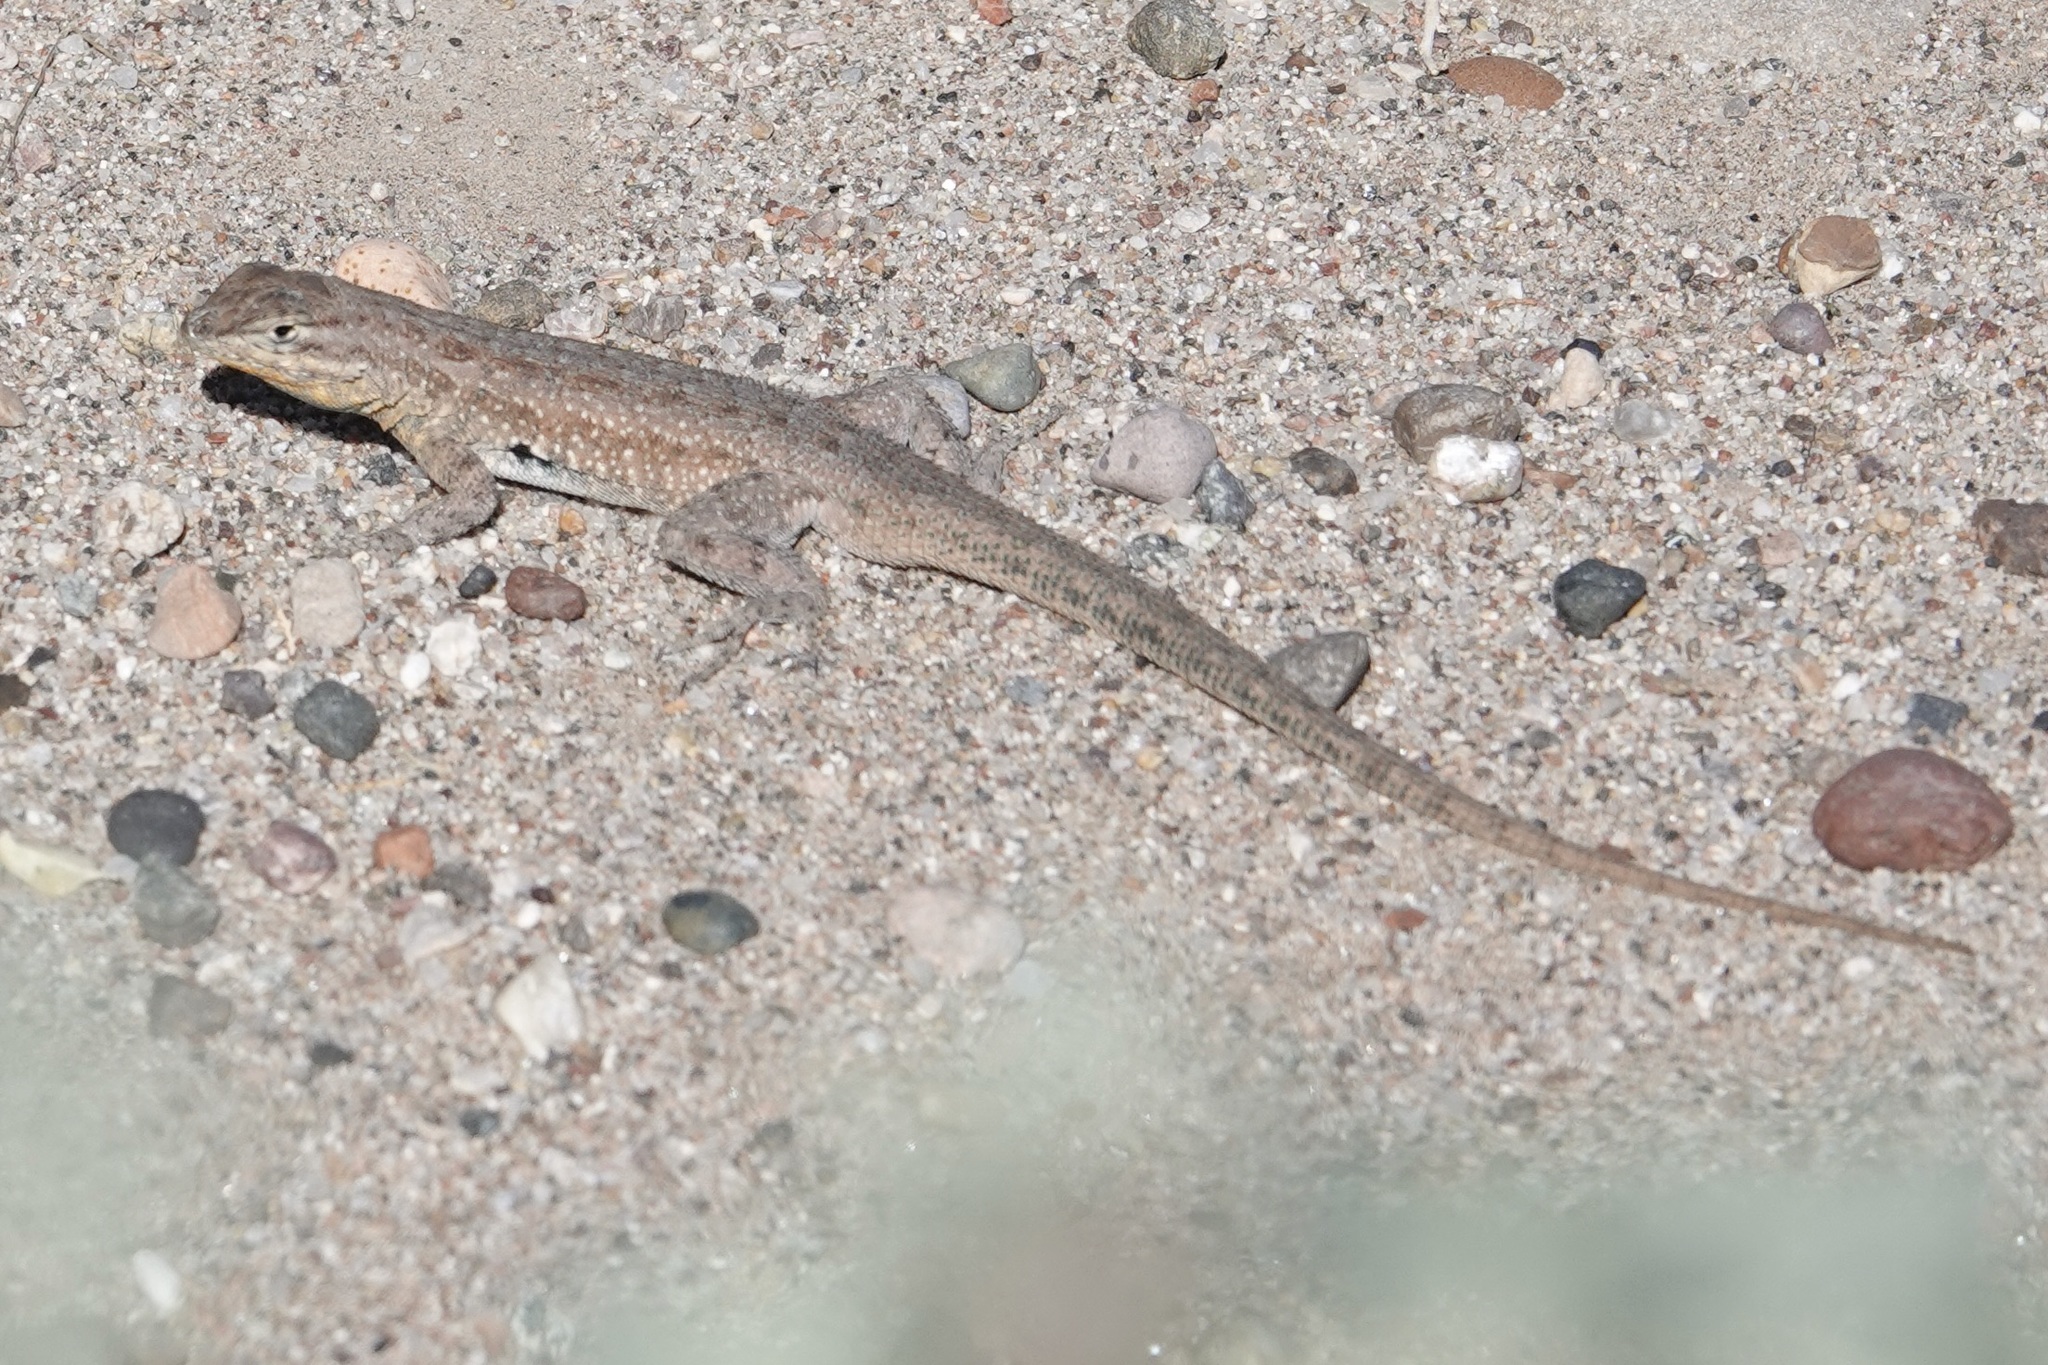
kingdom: Animalia
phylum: Chordata
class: Squamata
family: Phrynosomatidae
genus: Uta
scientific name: Uta stansburiana
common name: Side-blotched lizard
